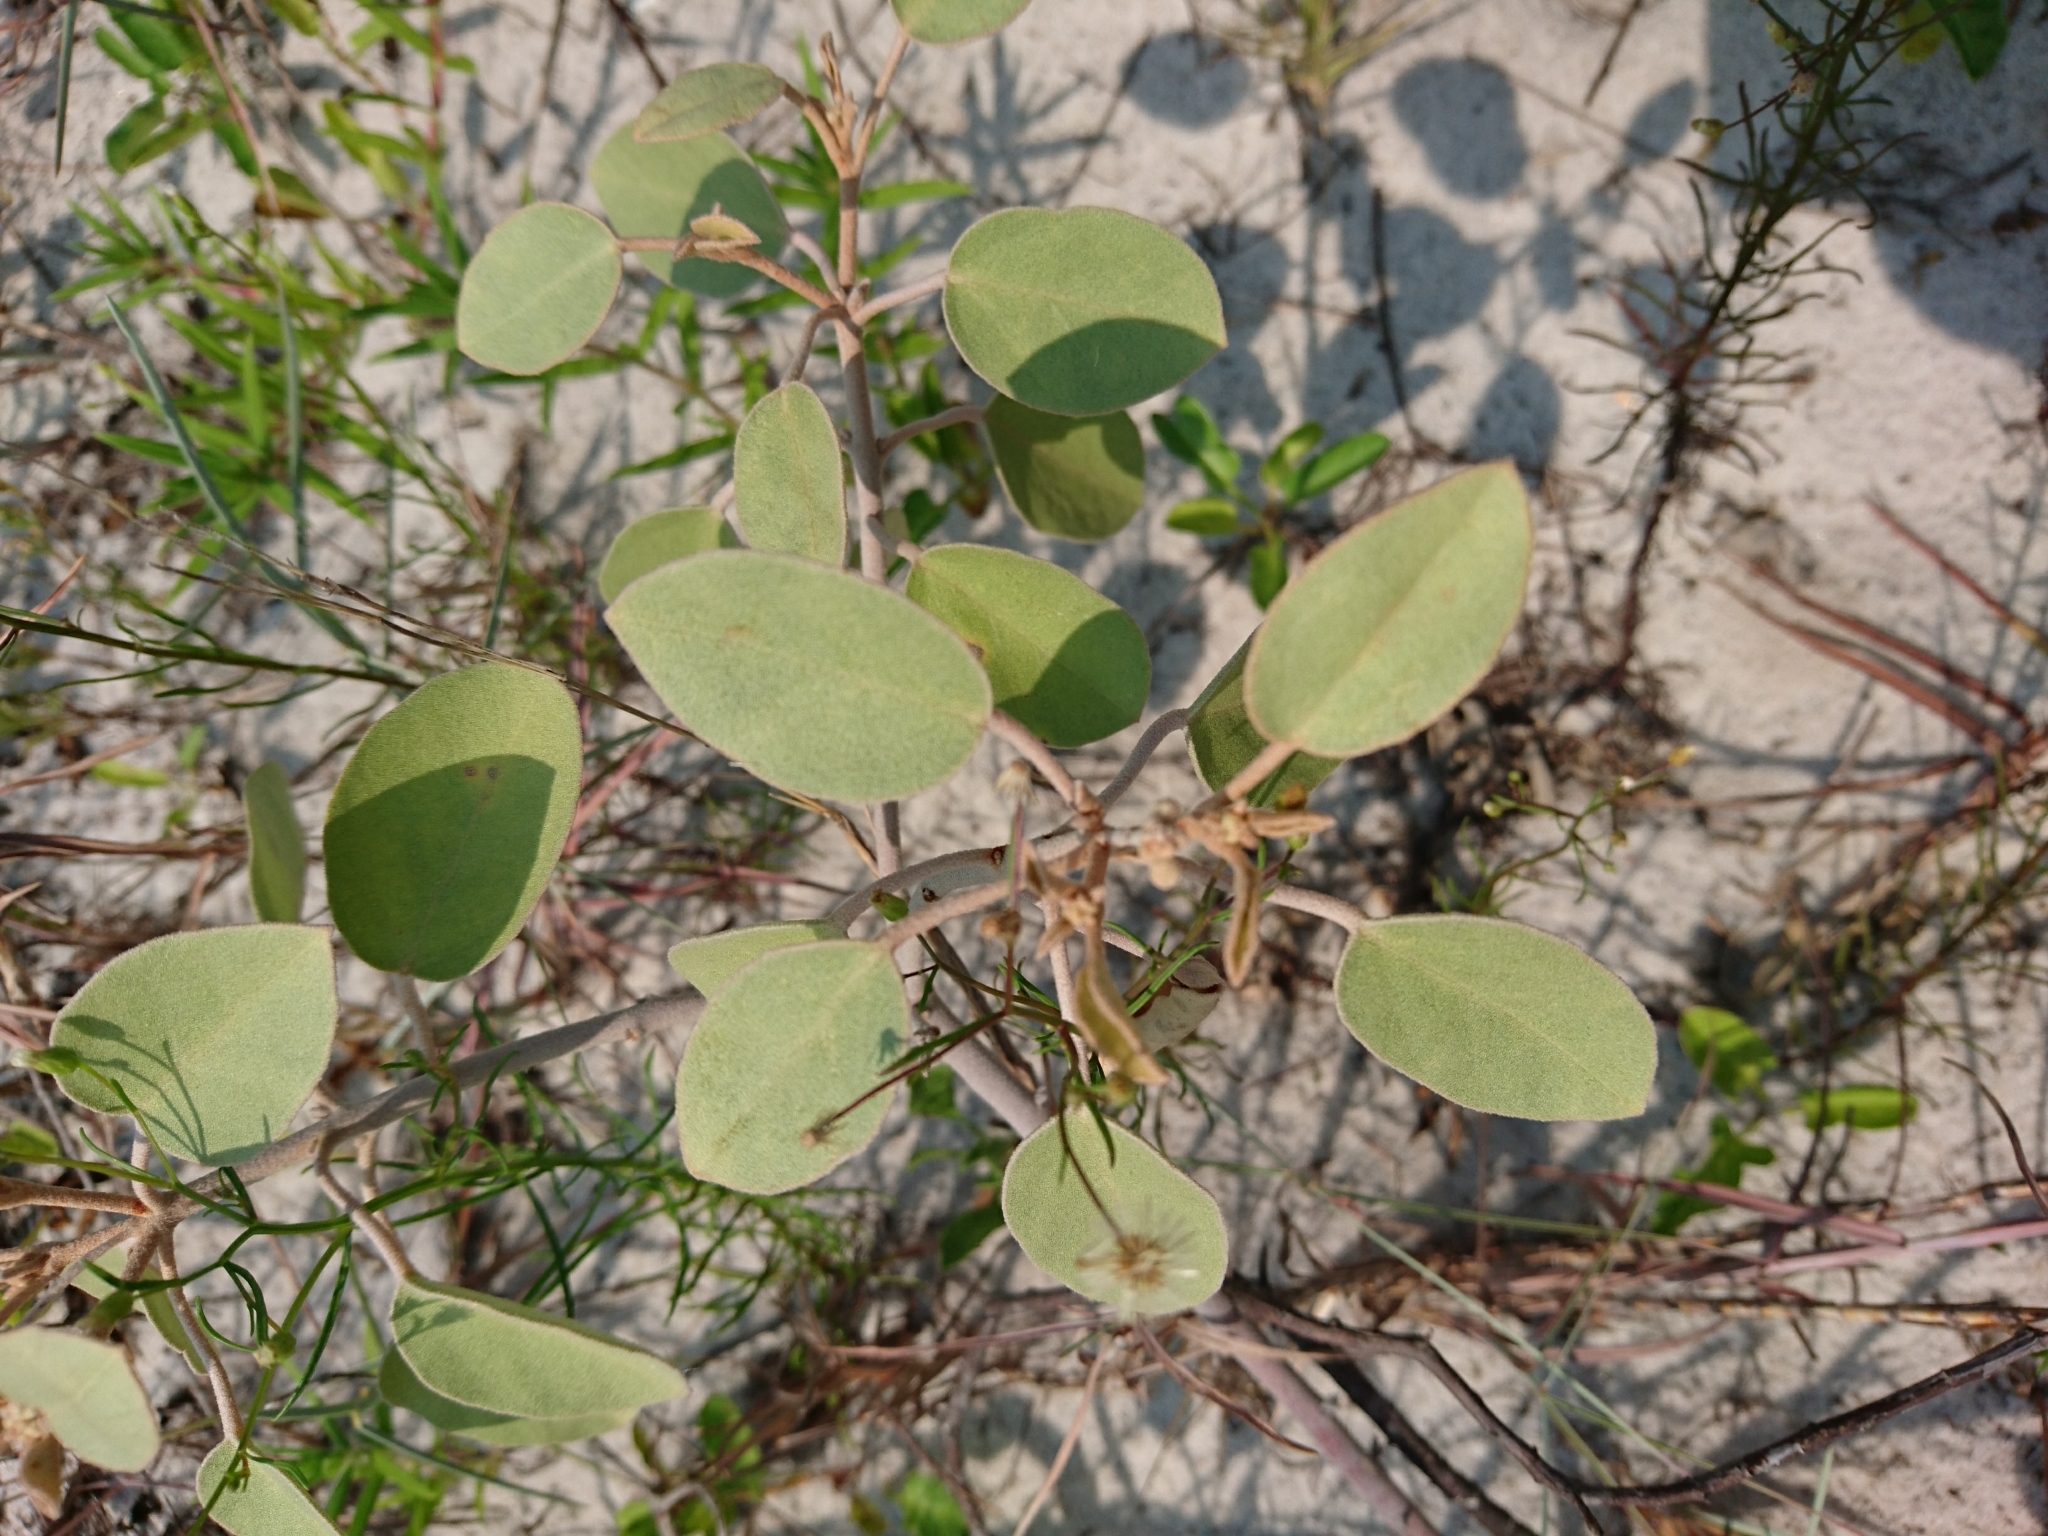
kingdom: Plantae
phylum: Tracheophyta
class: Magnoliopsida
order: Malpighiales
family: Euphorbiaceae
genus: Croton
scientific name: Croton punctatus
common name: Beach-tea
